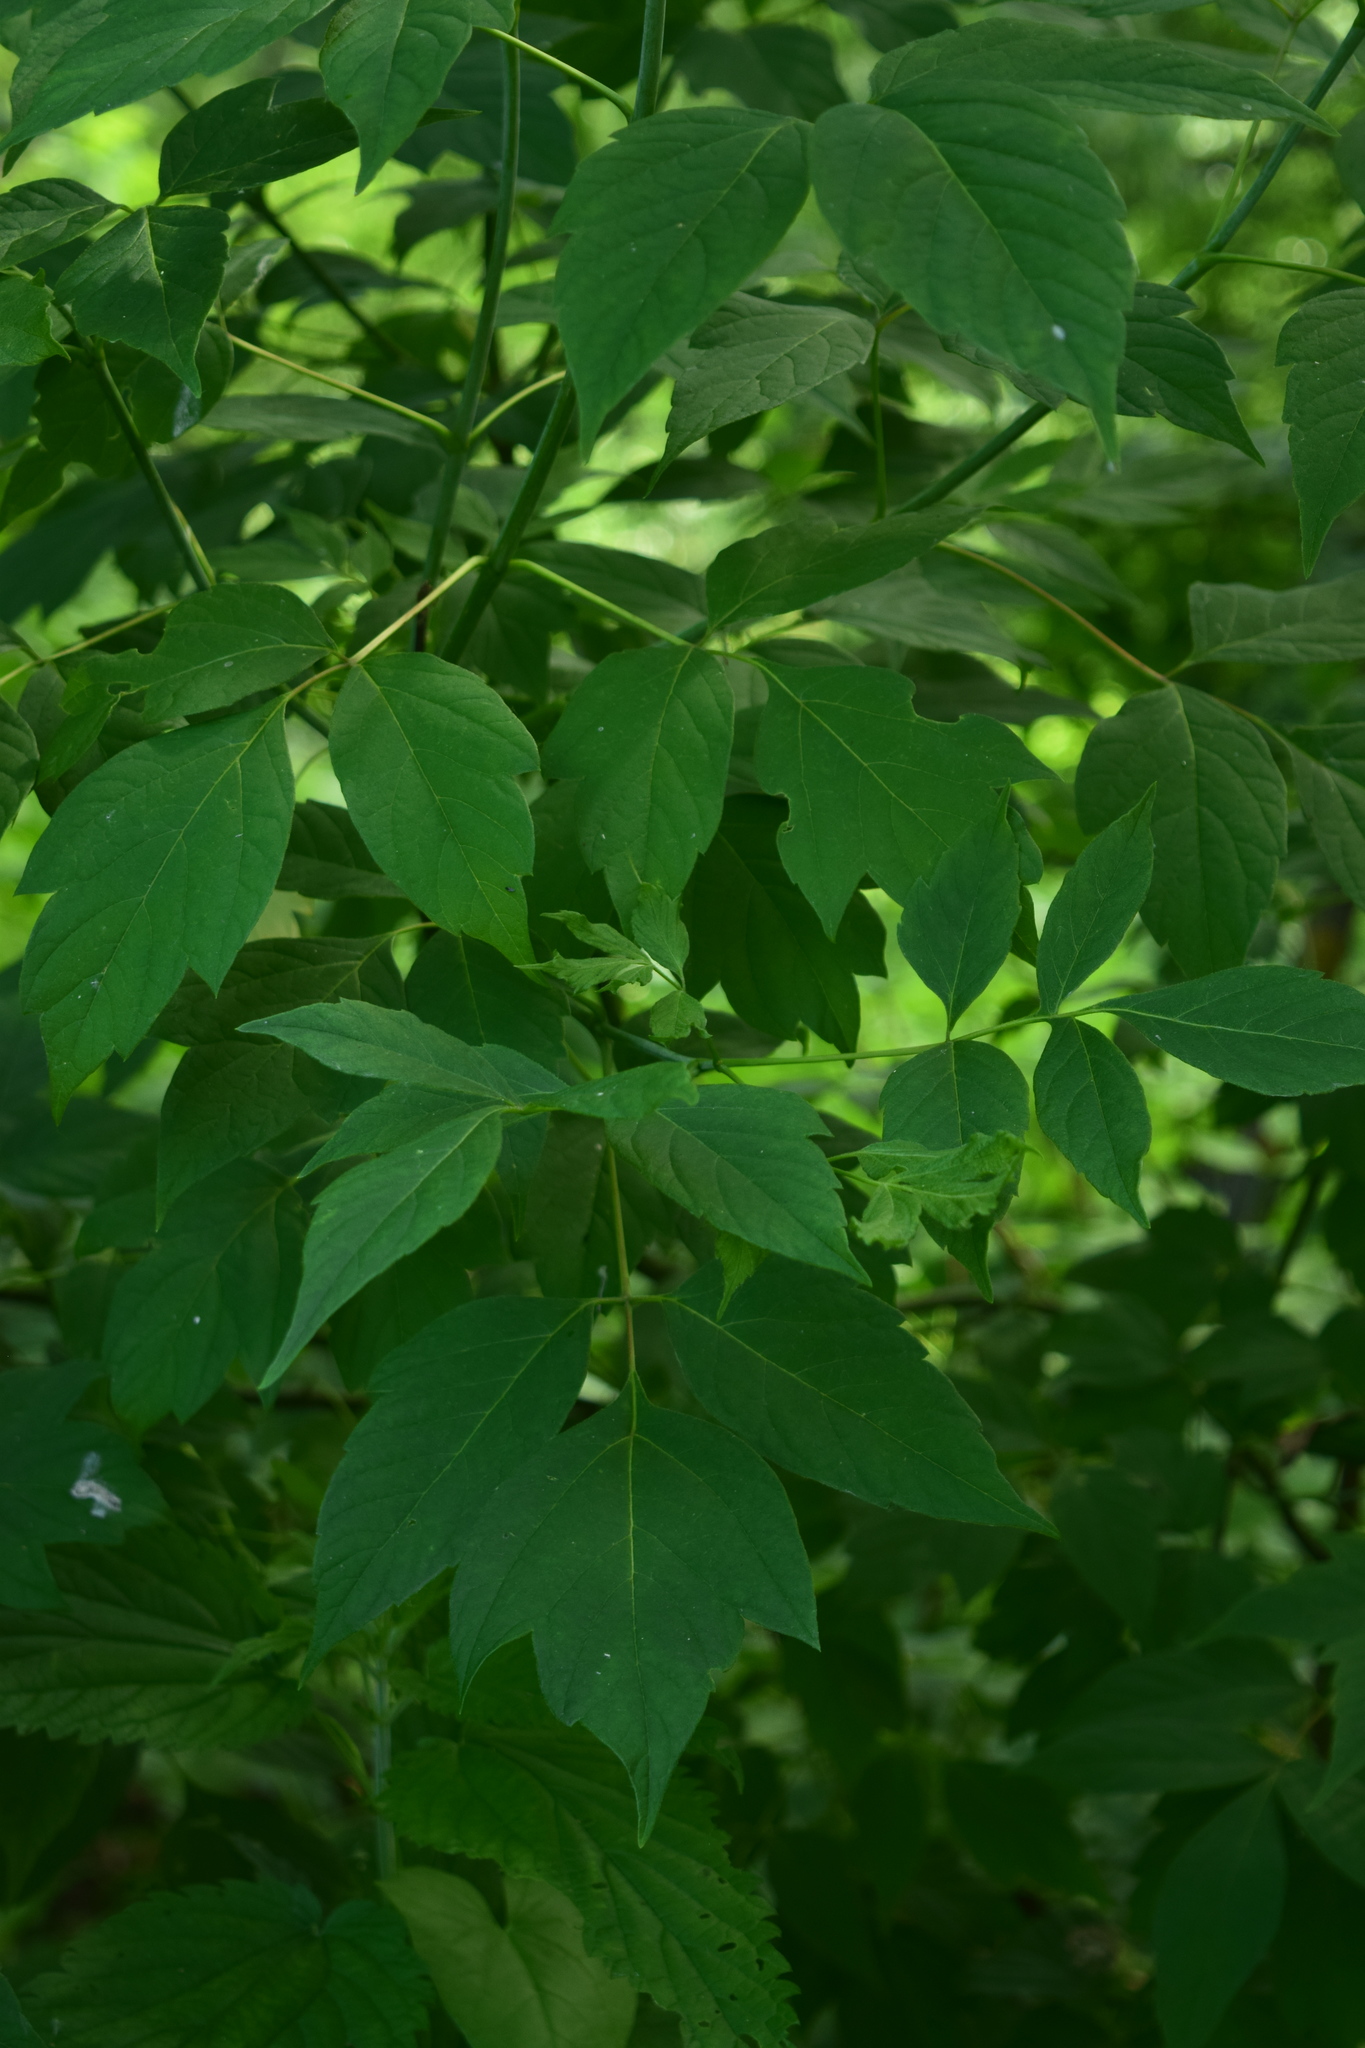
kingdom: Plantae
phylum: Tracheophyta
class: Magnoliopsida
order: Sapindales
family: Sapindaceae
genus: Acer
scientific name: Acer negundo
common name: Ashleaf maple
